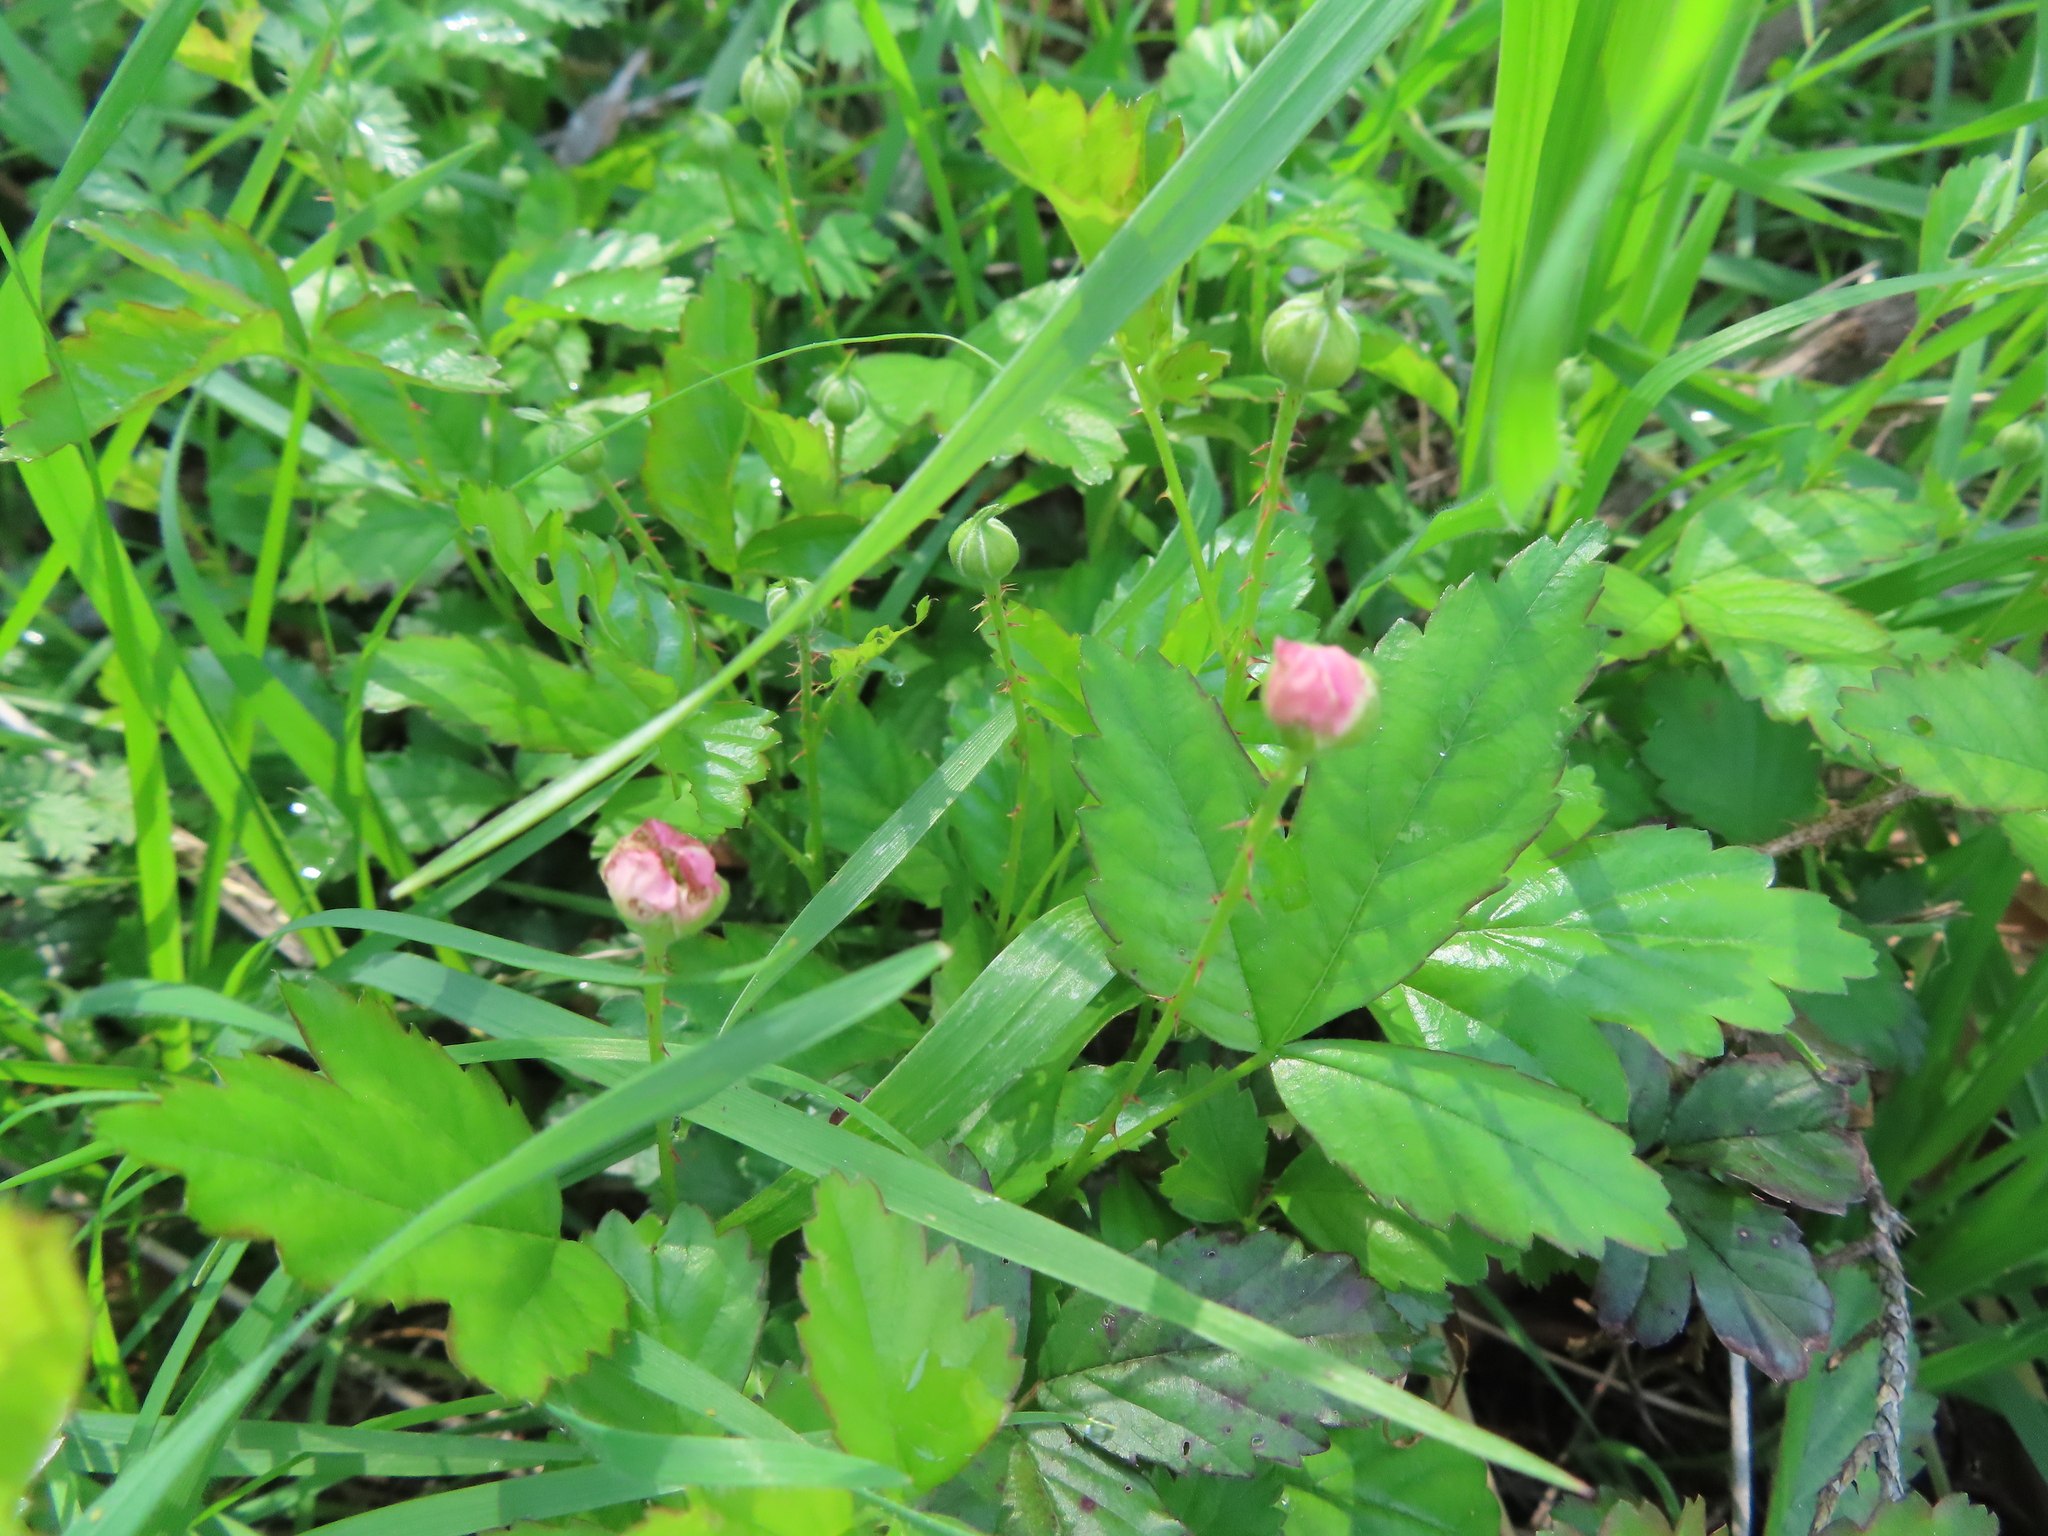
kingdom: Plantae
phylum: Tracheophyta
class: Magnoliopsida
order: Rosales
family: Rosaceae
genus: Rubus
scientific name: Rubus trivialis
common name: Southern dewberry
